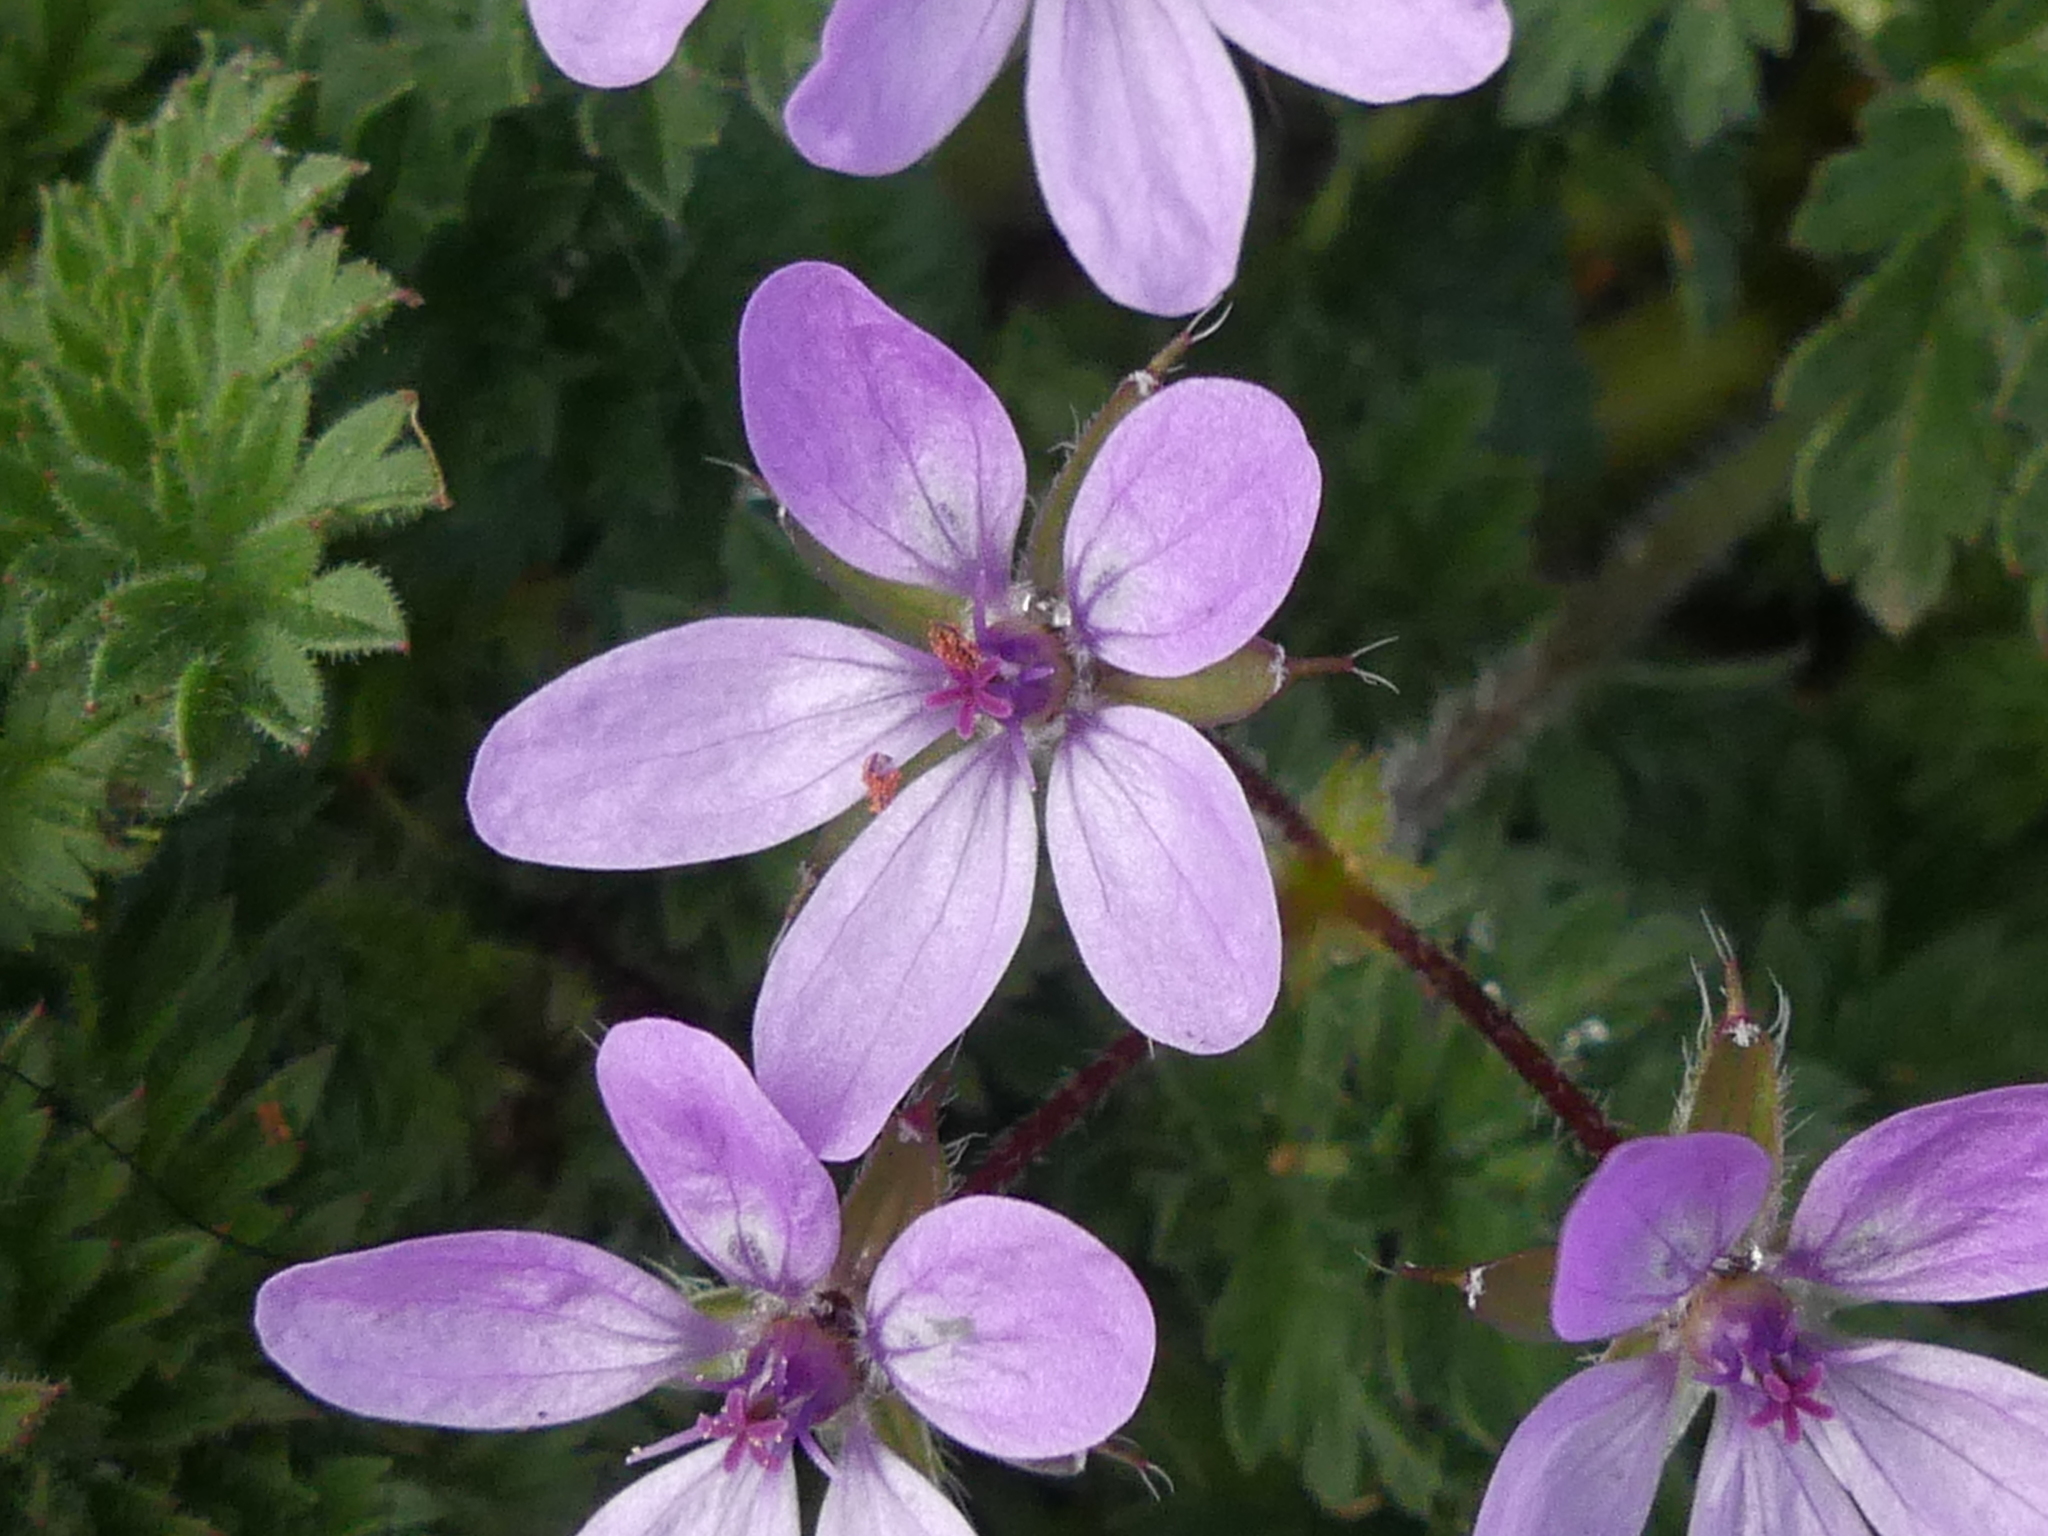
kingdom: Plantae
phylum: Tracheophyta
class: Magnoliopsida
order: Geraniales
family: Geraniaceae
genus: Erodium
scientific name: Erodium cicutarium
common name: Common stork's-bill
